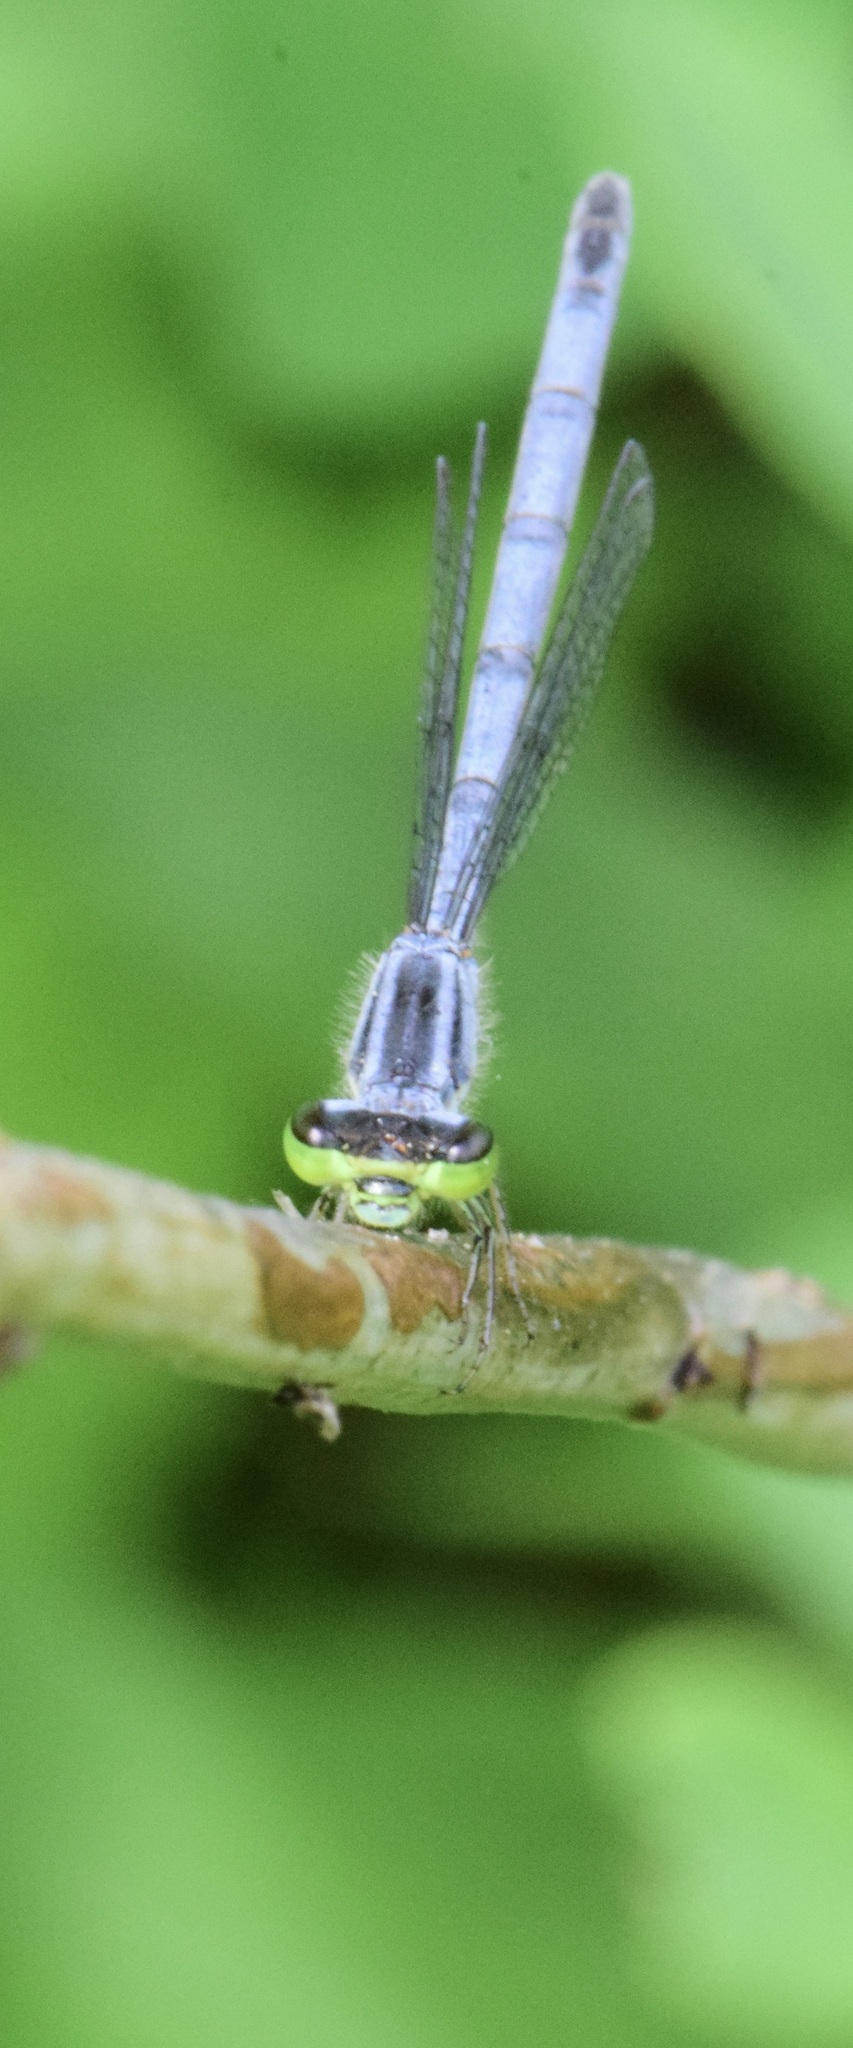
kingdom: Animalia
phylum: Arthropoda
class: Insecta
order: Odonata
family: Coenagrionidae
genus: Ischnura
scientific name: Ischnura verticalis
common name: Eastern forktail
